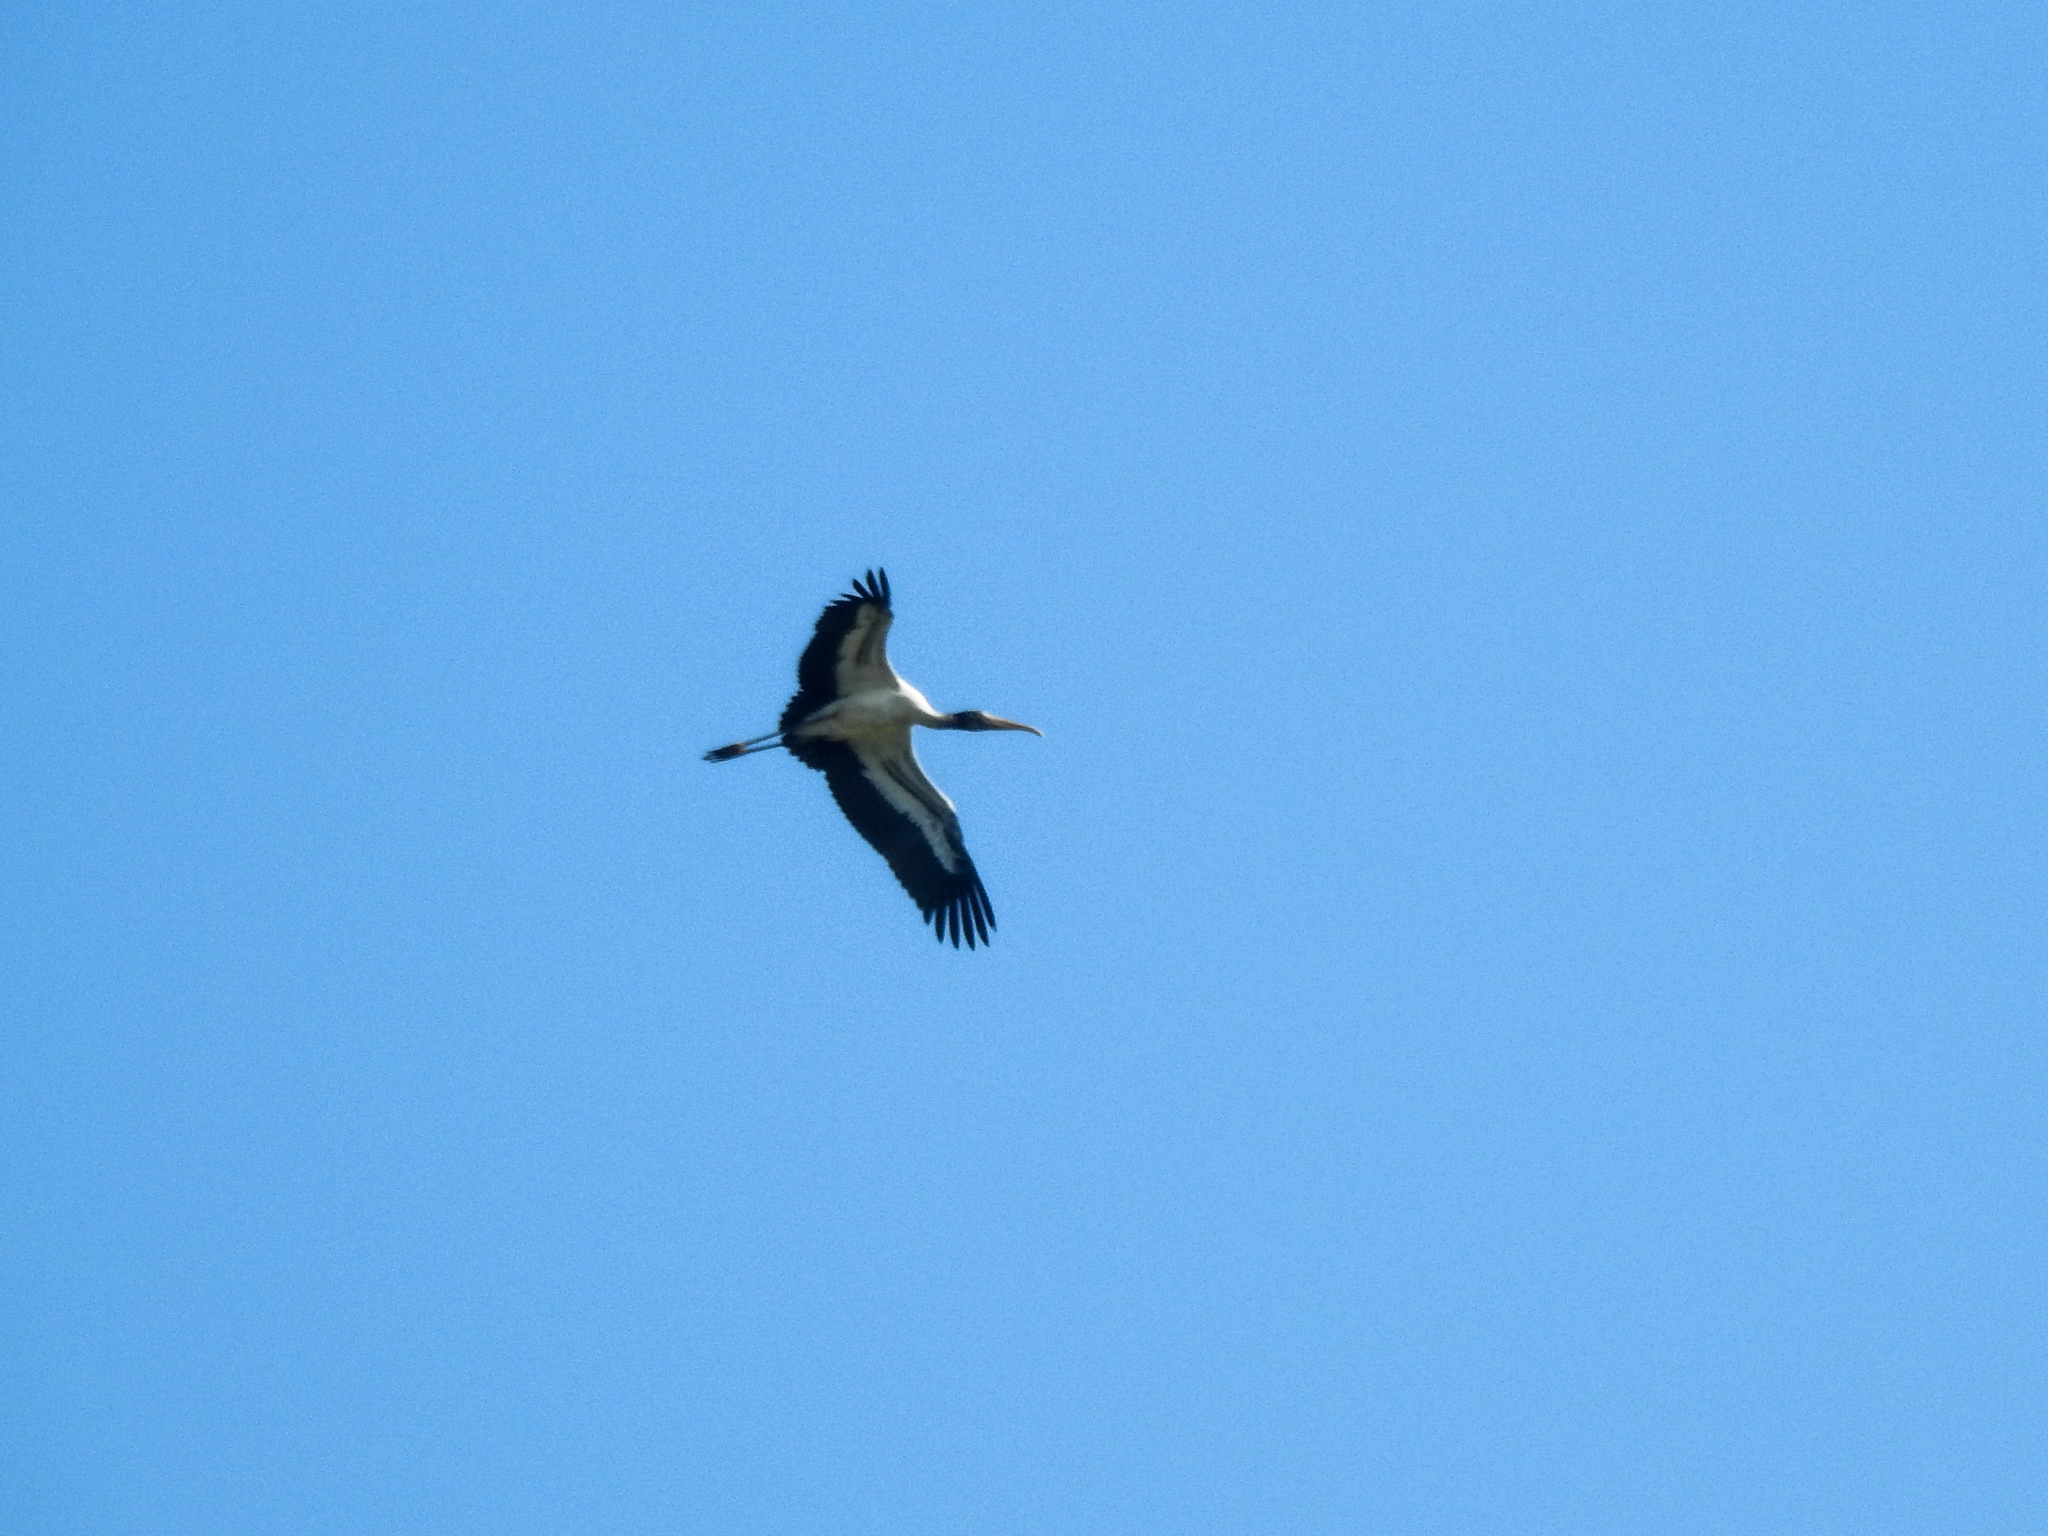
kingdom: Animalia
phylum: Chordata
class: Aves
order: Ciconiiformes
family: Ciconiidae
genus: Mycteria
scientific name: Mycteria americana
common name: Wood stork
